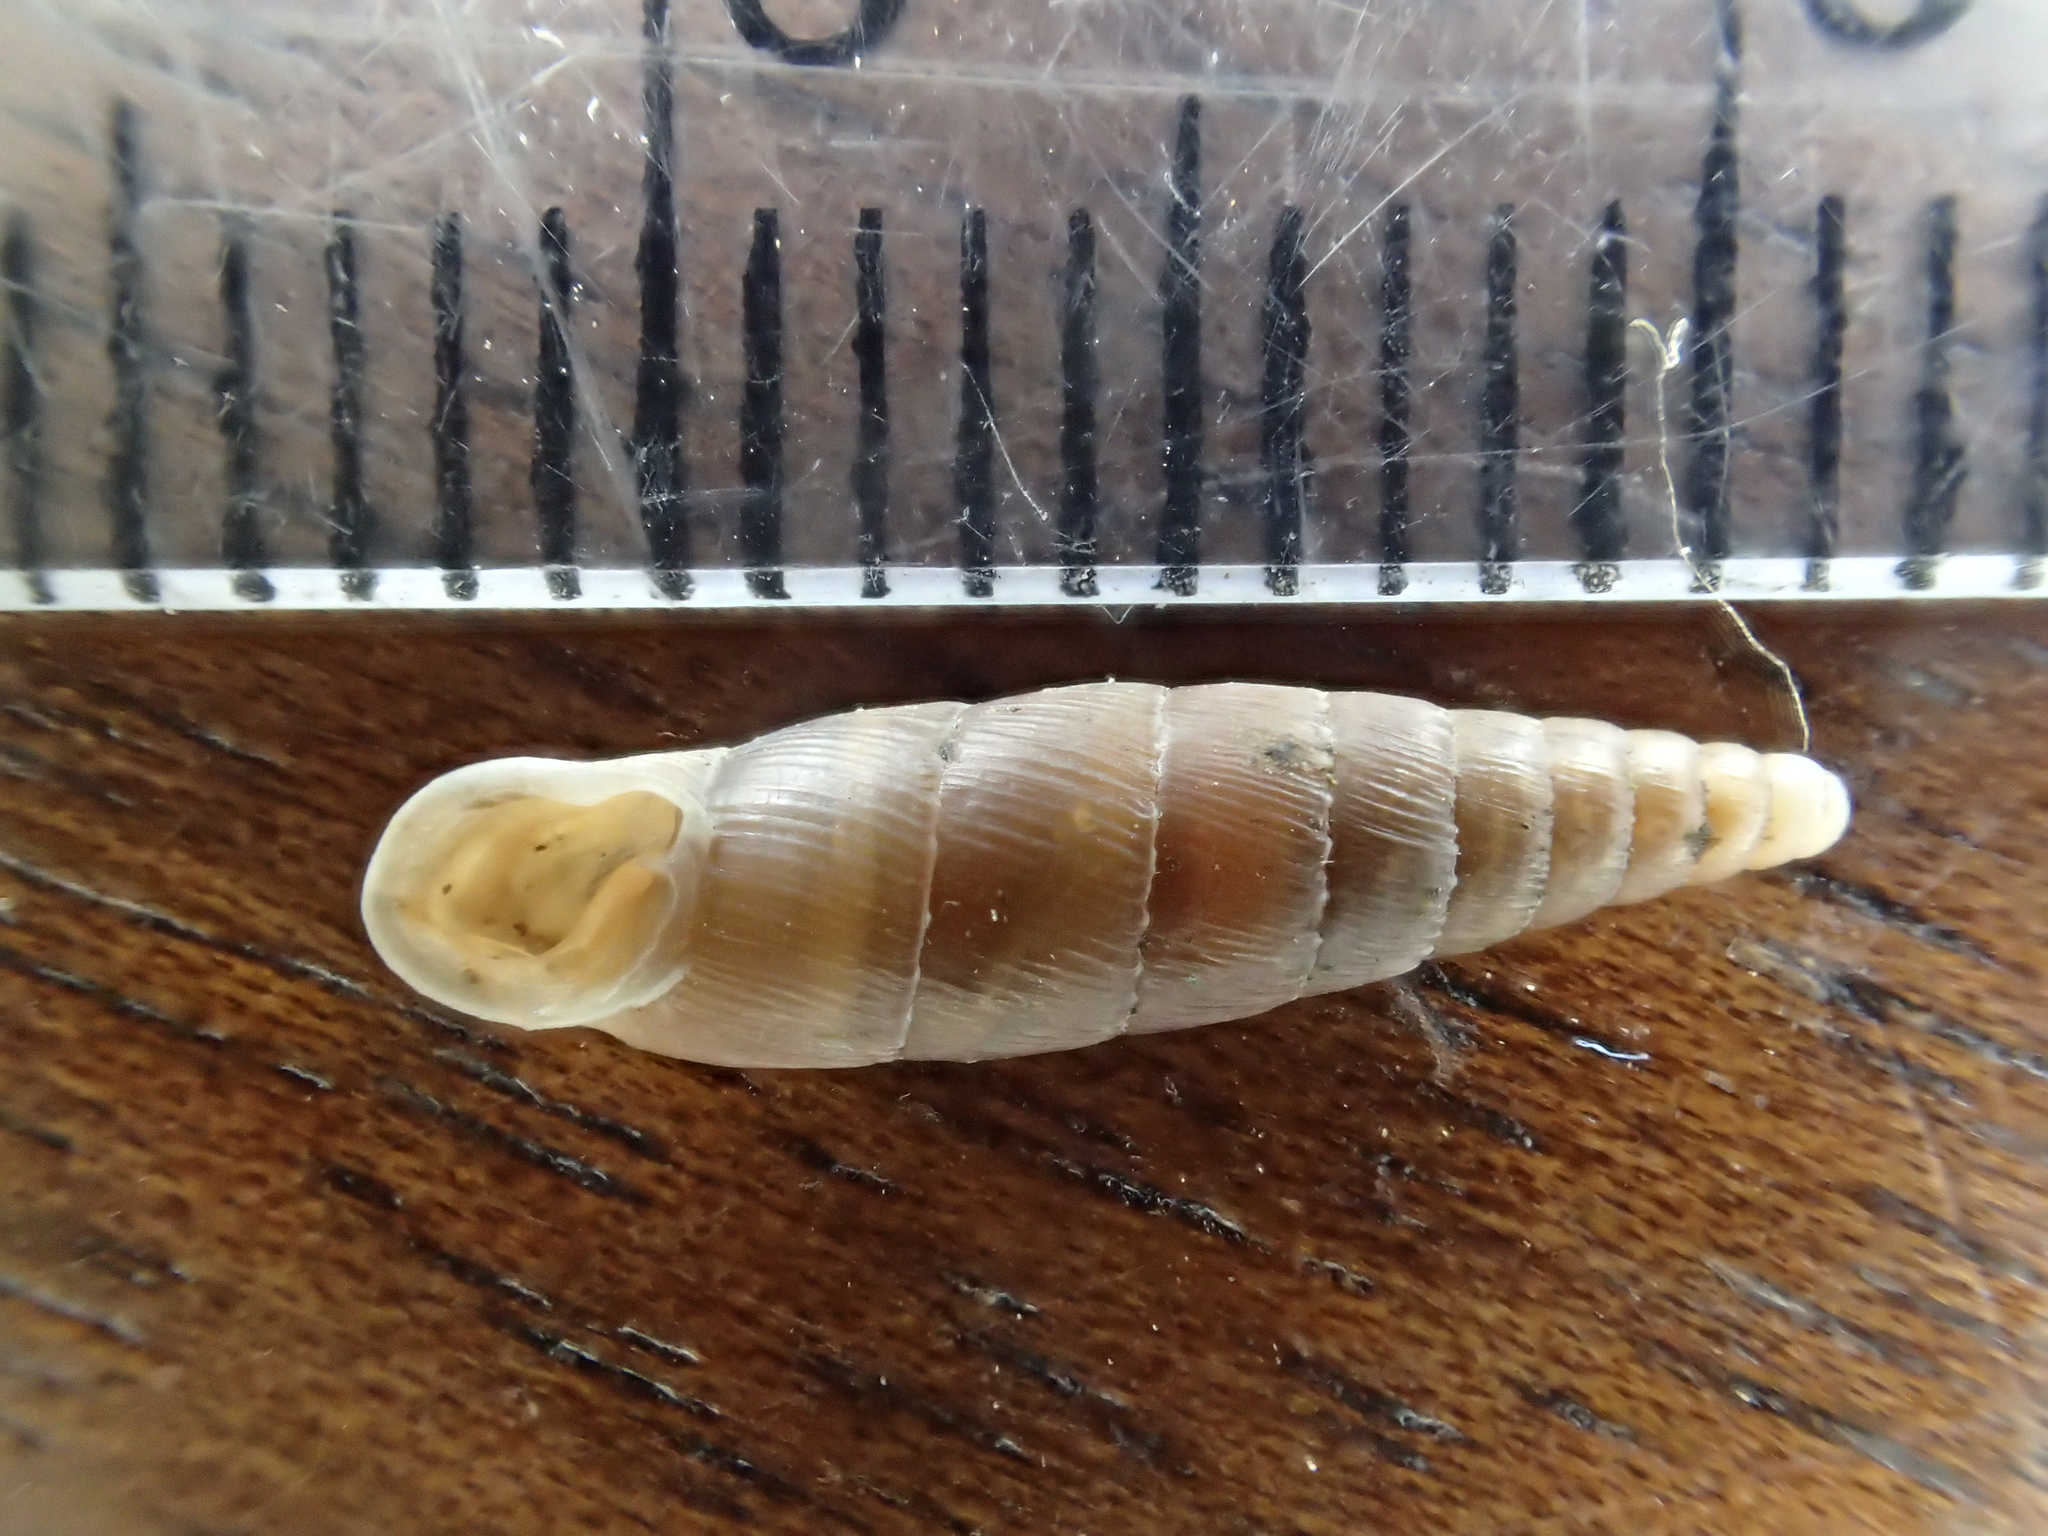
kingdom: Animalia
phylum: Mollusca
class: Gastropoda
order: Stylommatophora
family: Clausiliidae
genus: Papillifera
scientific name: Papillifera solida
